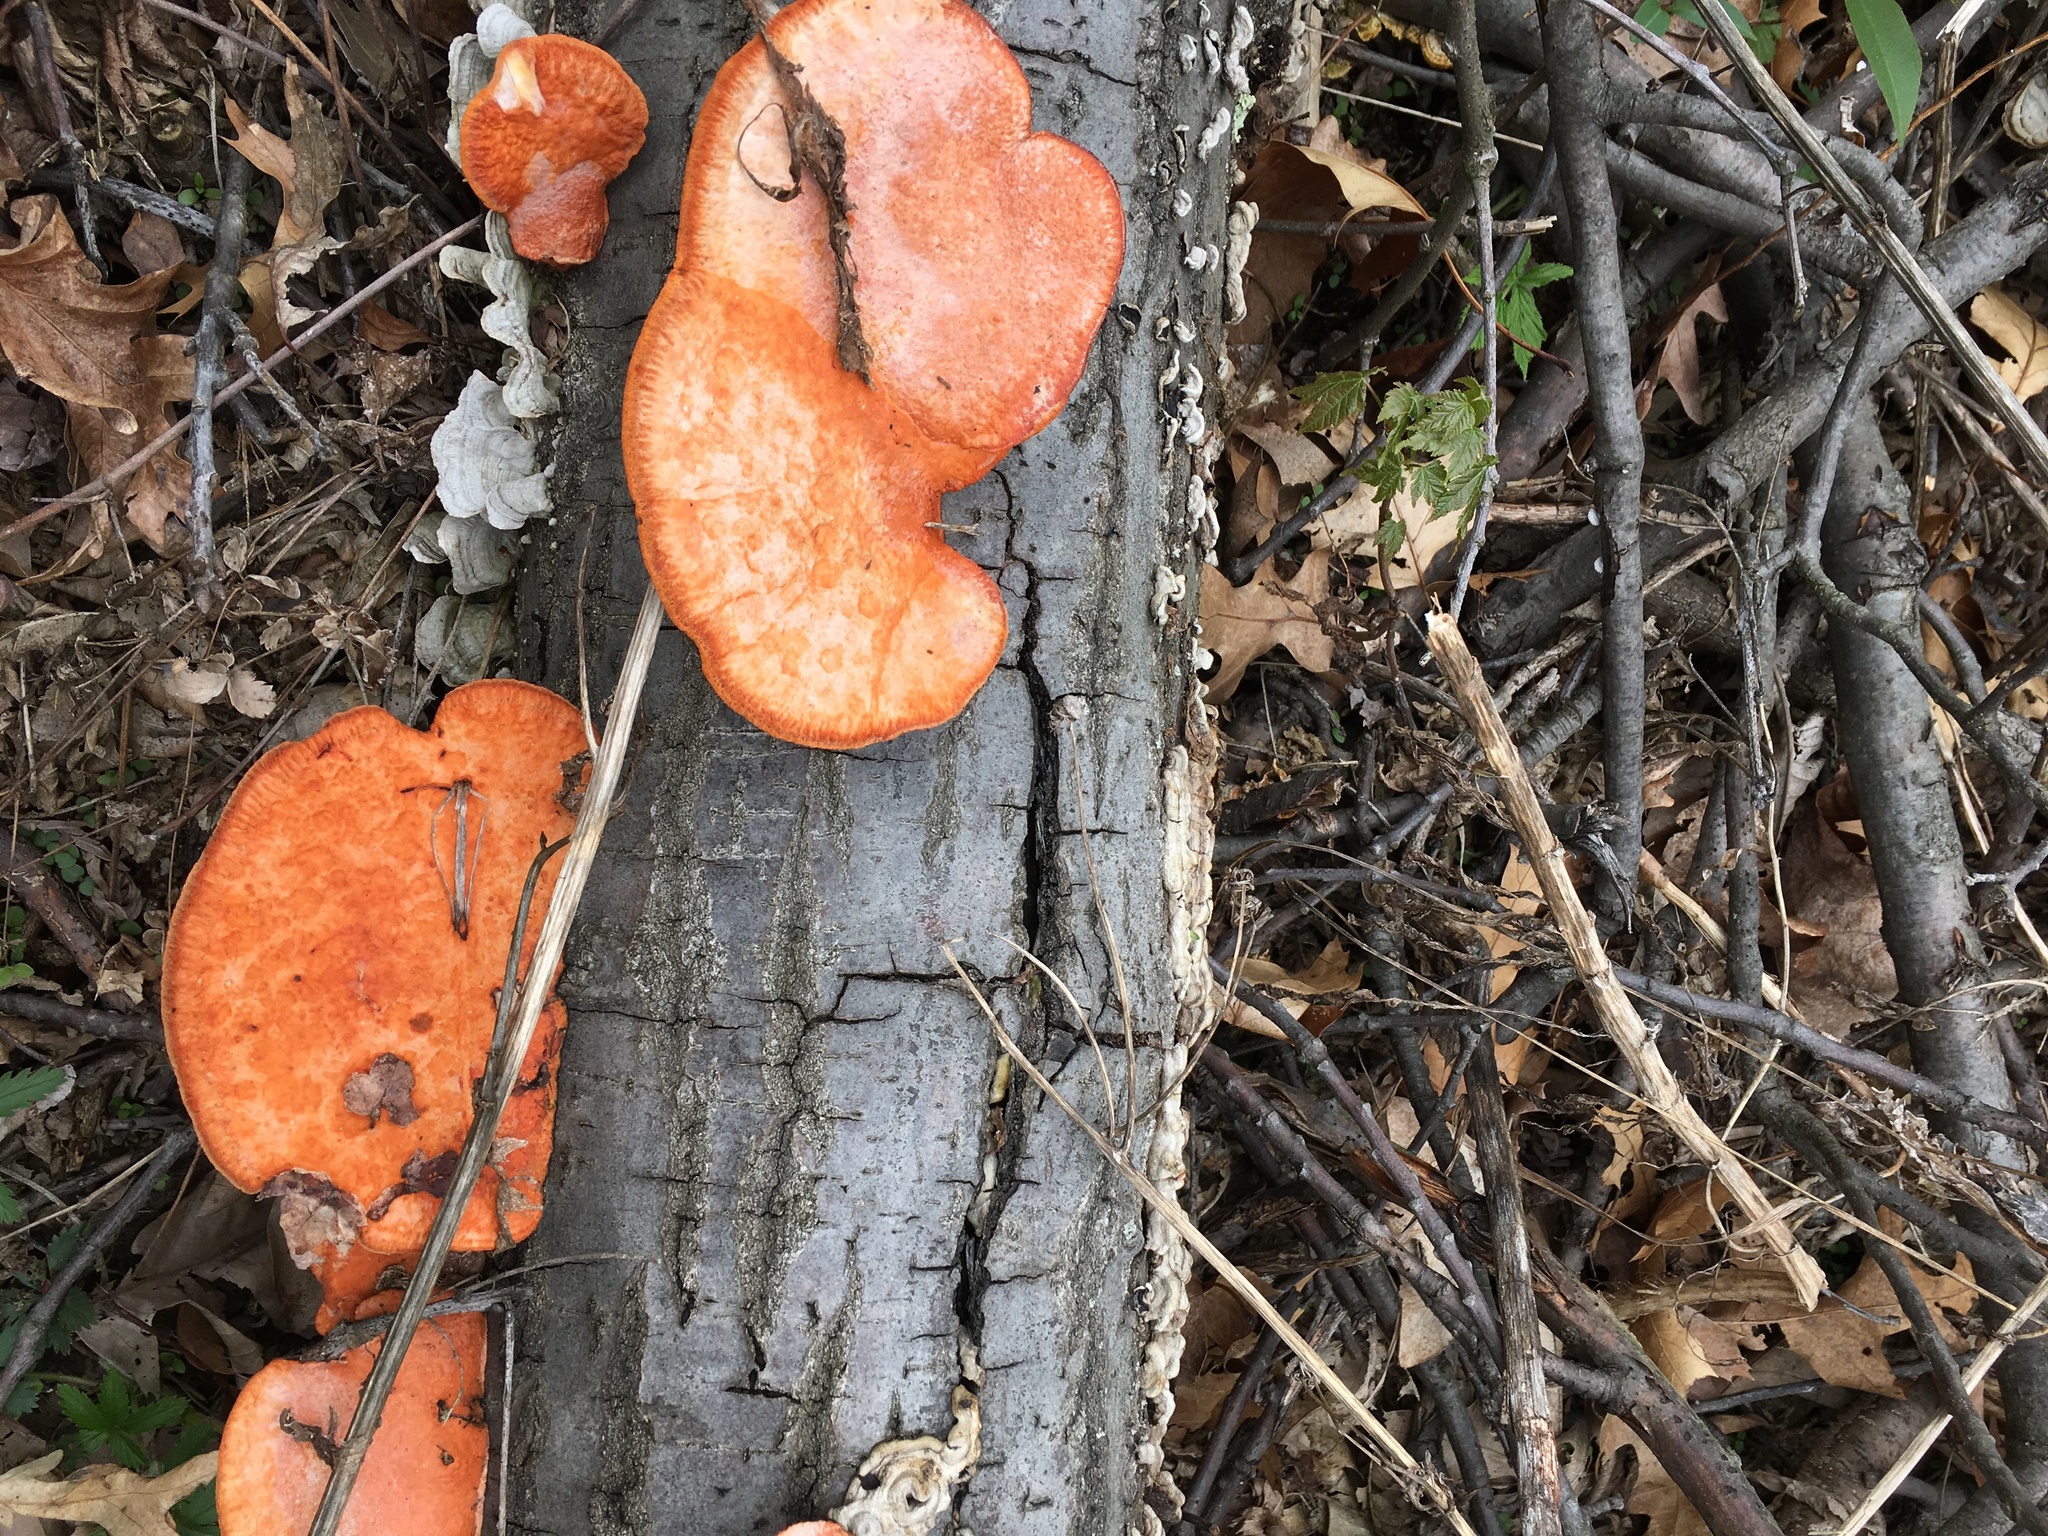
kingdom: Fungi
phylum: Basidiomycota
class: Agaricomycetes
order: Polyporales
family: Polyporaceae
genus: Trametes
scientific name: Trametes cinnabarina
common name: Northern cinnabar polypore
